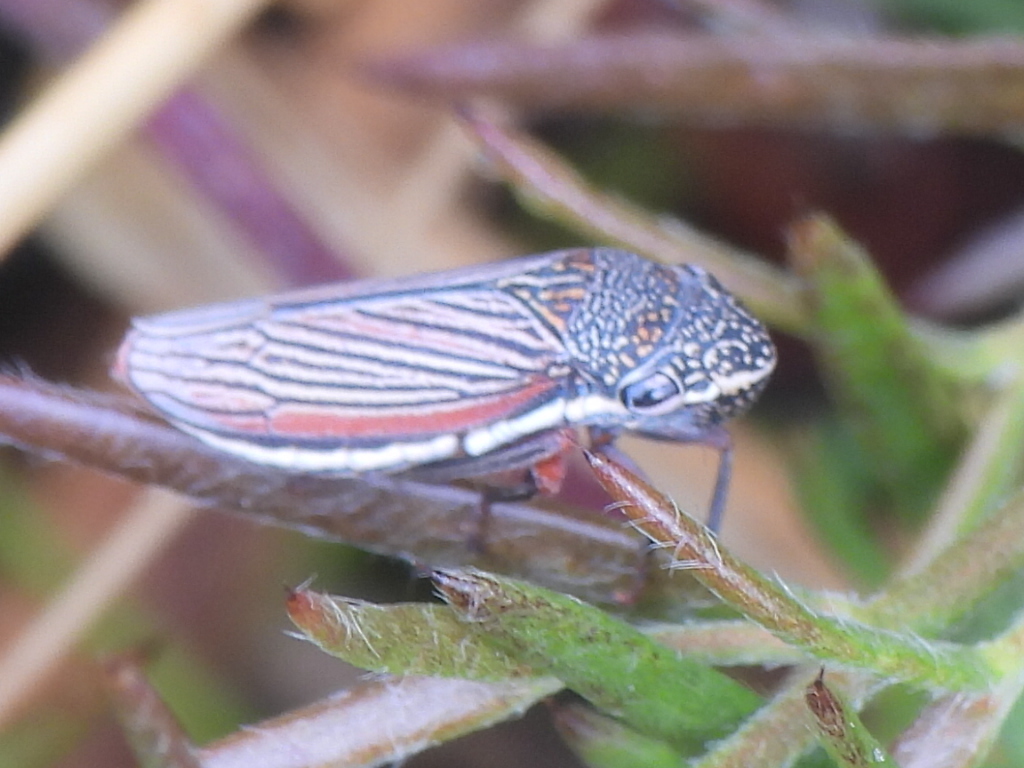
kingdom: Animalia
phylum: Arthropoda
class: Insecta
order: Hemiptera
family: Cicadellidae
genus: Cuerna
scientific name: Cuerna costalis
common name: Lateral-lined sharpshooter
